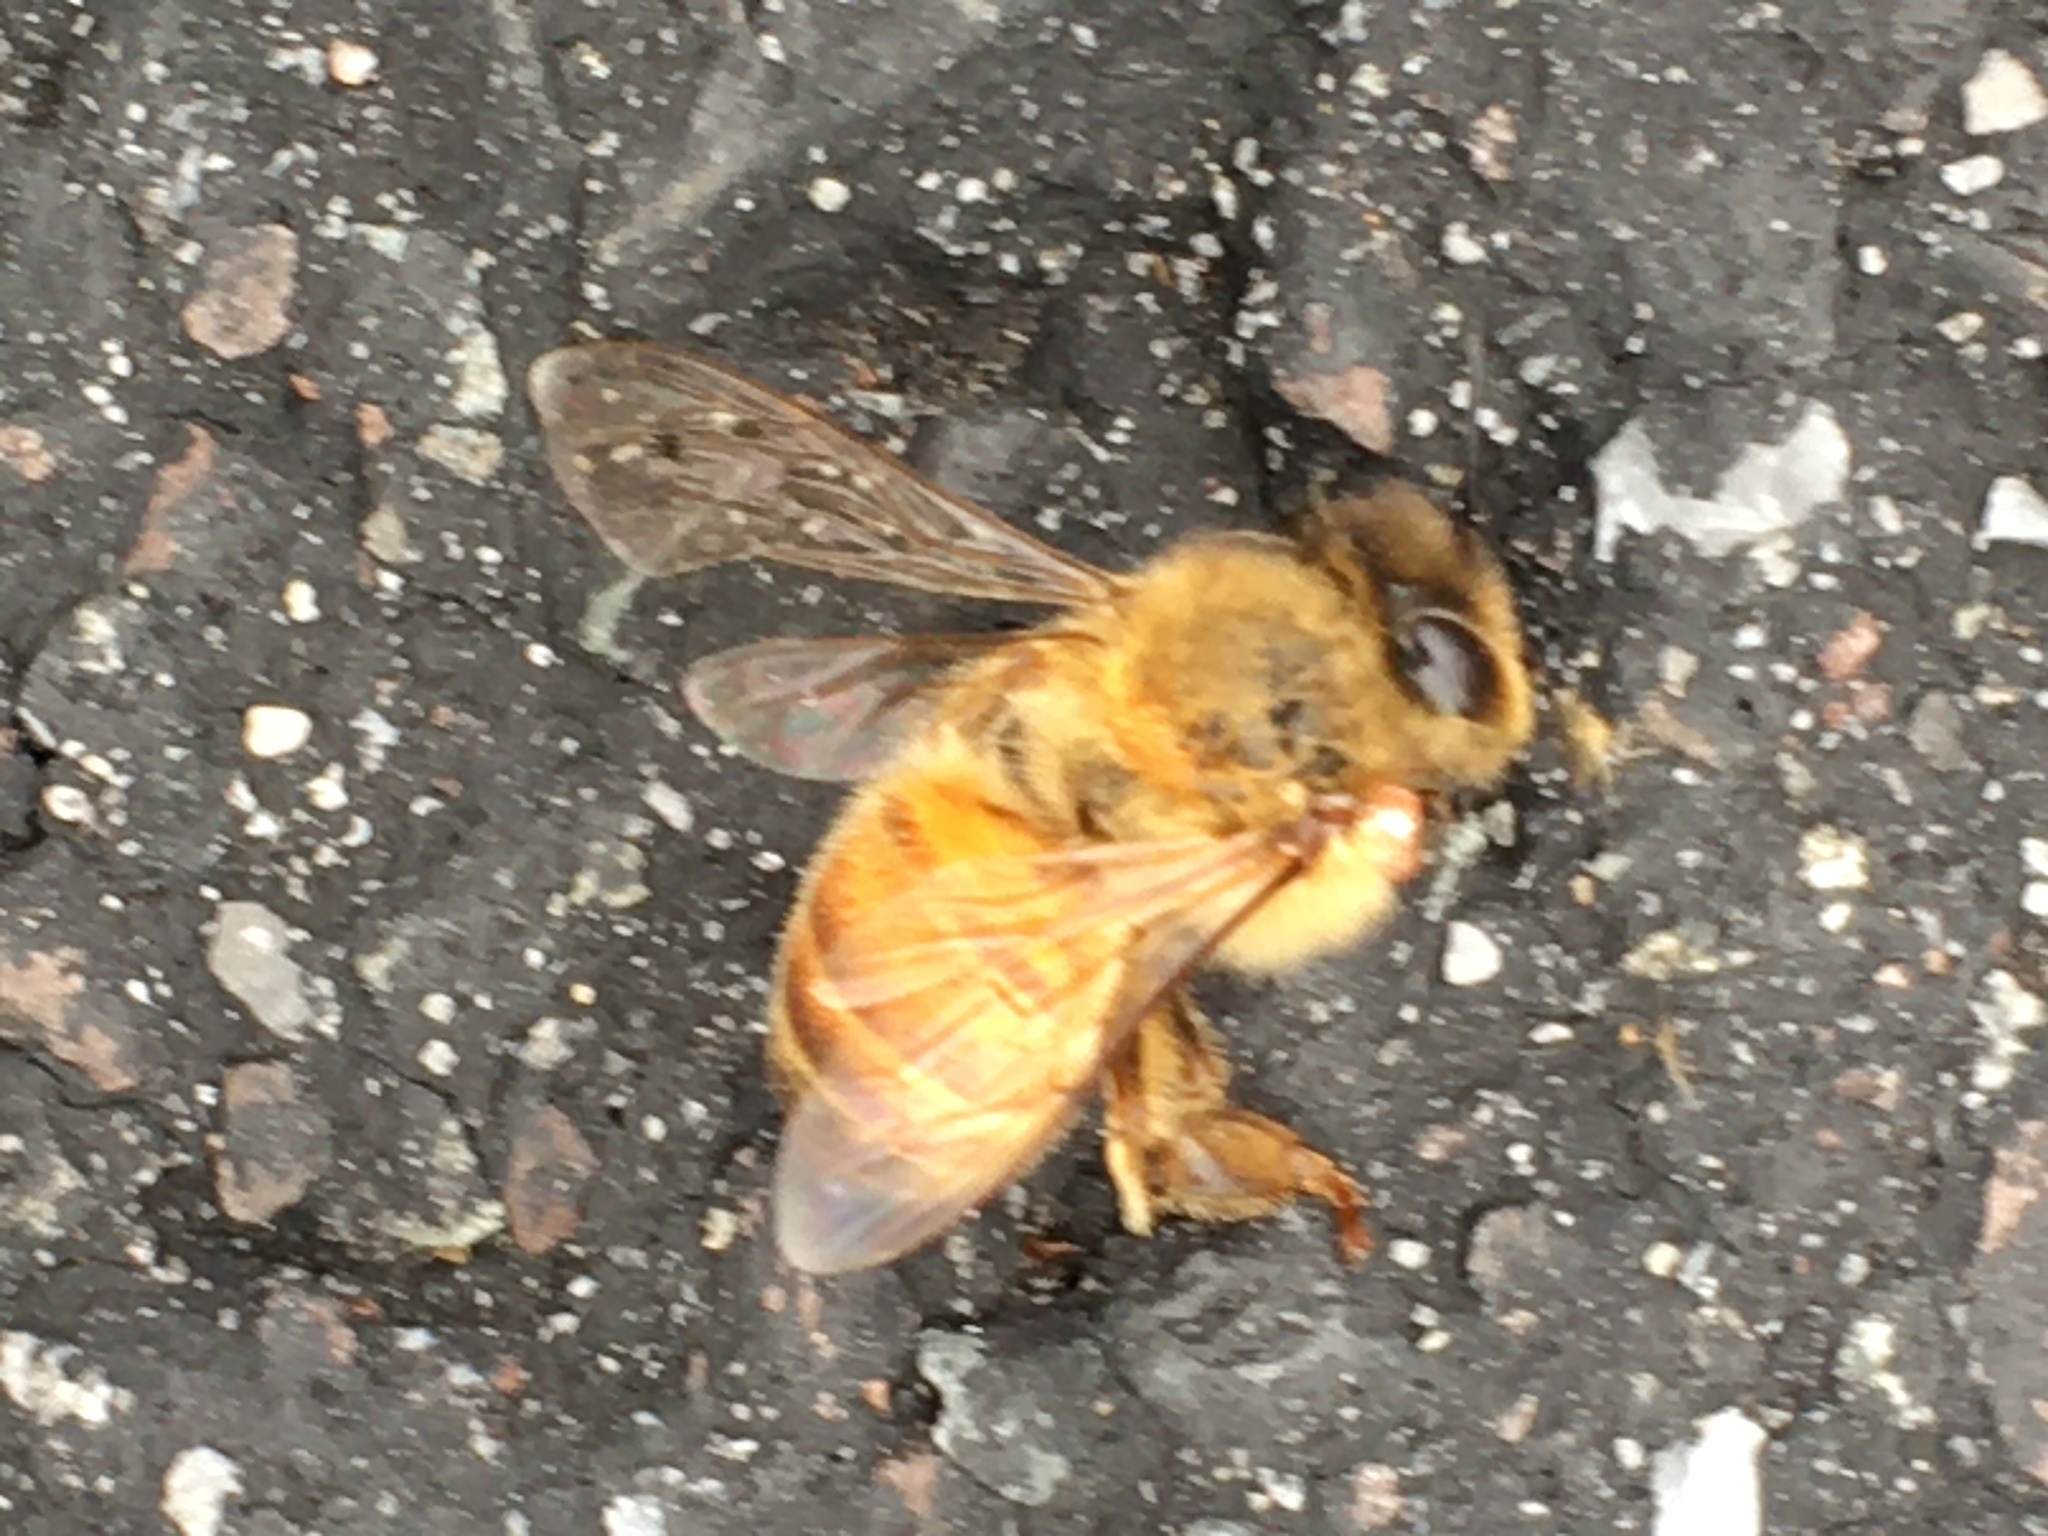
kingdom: Animalia
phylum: Arthropoda
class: Insecta
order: Hymenoptera
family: Apidae
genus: Apis
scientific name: Apis mellifera
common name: Honey bee
